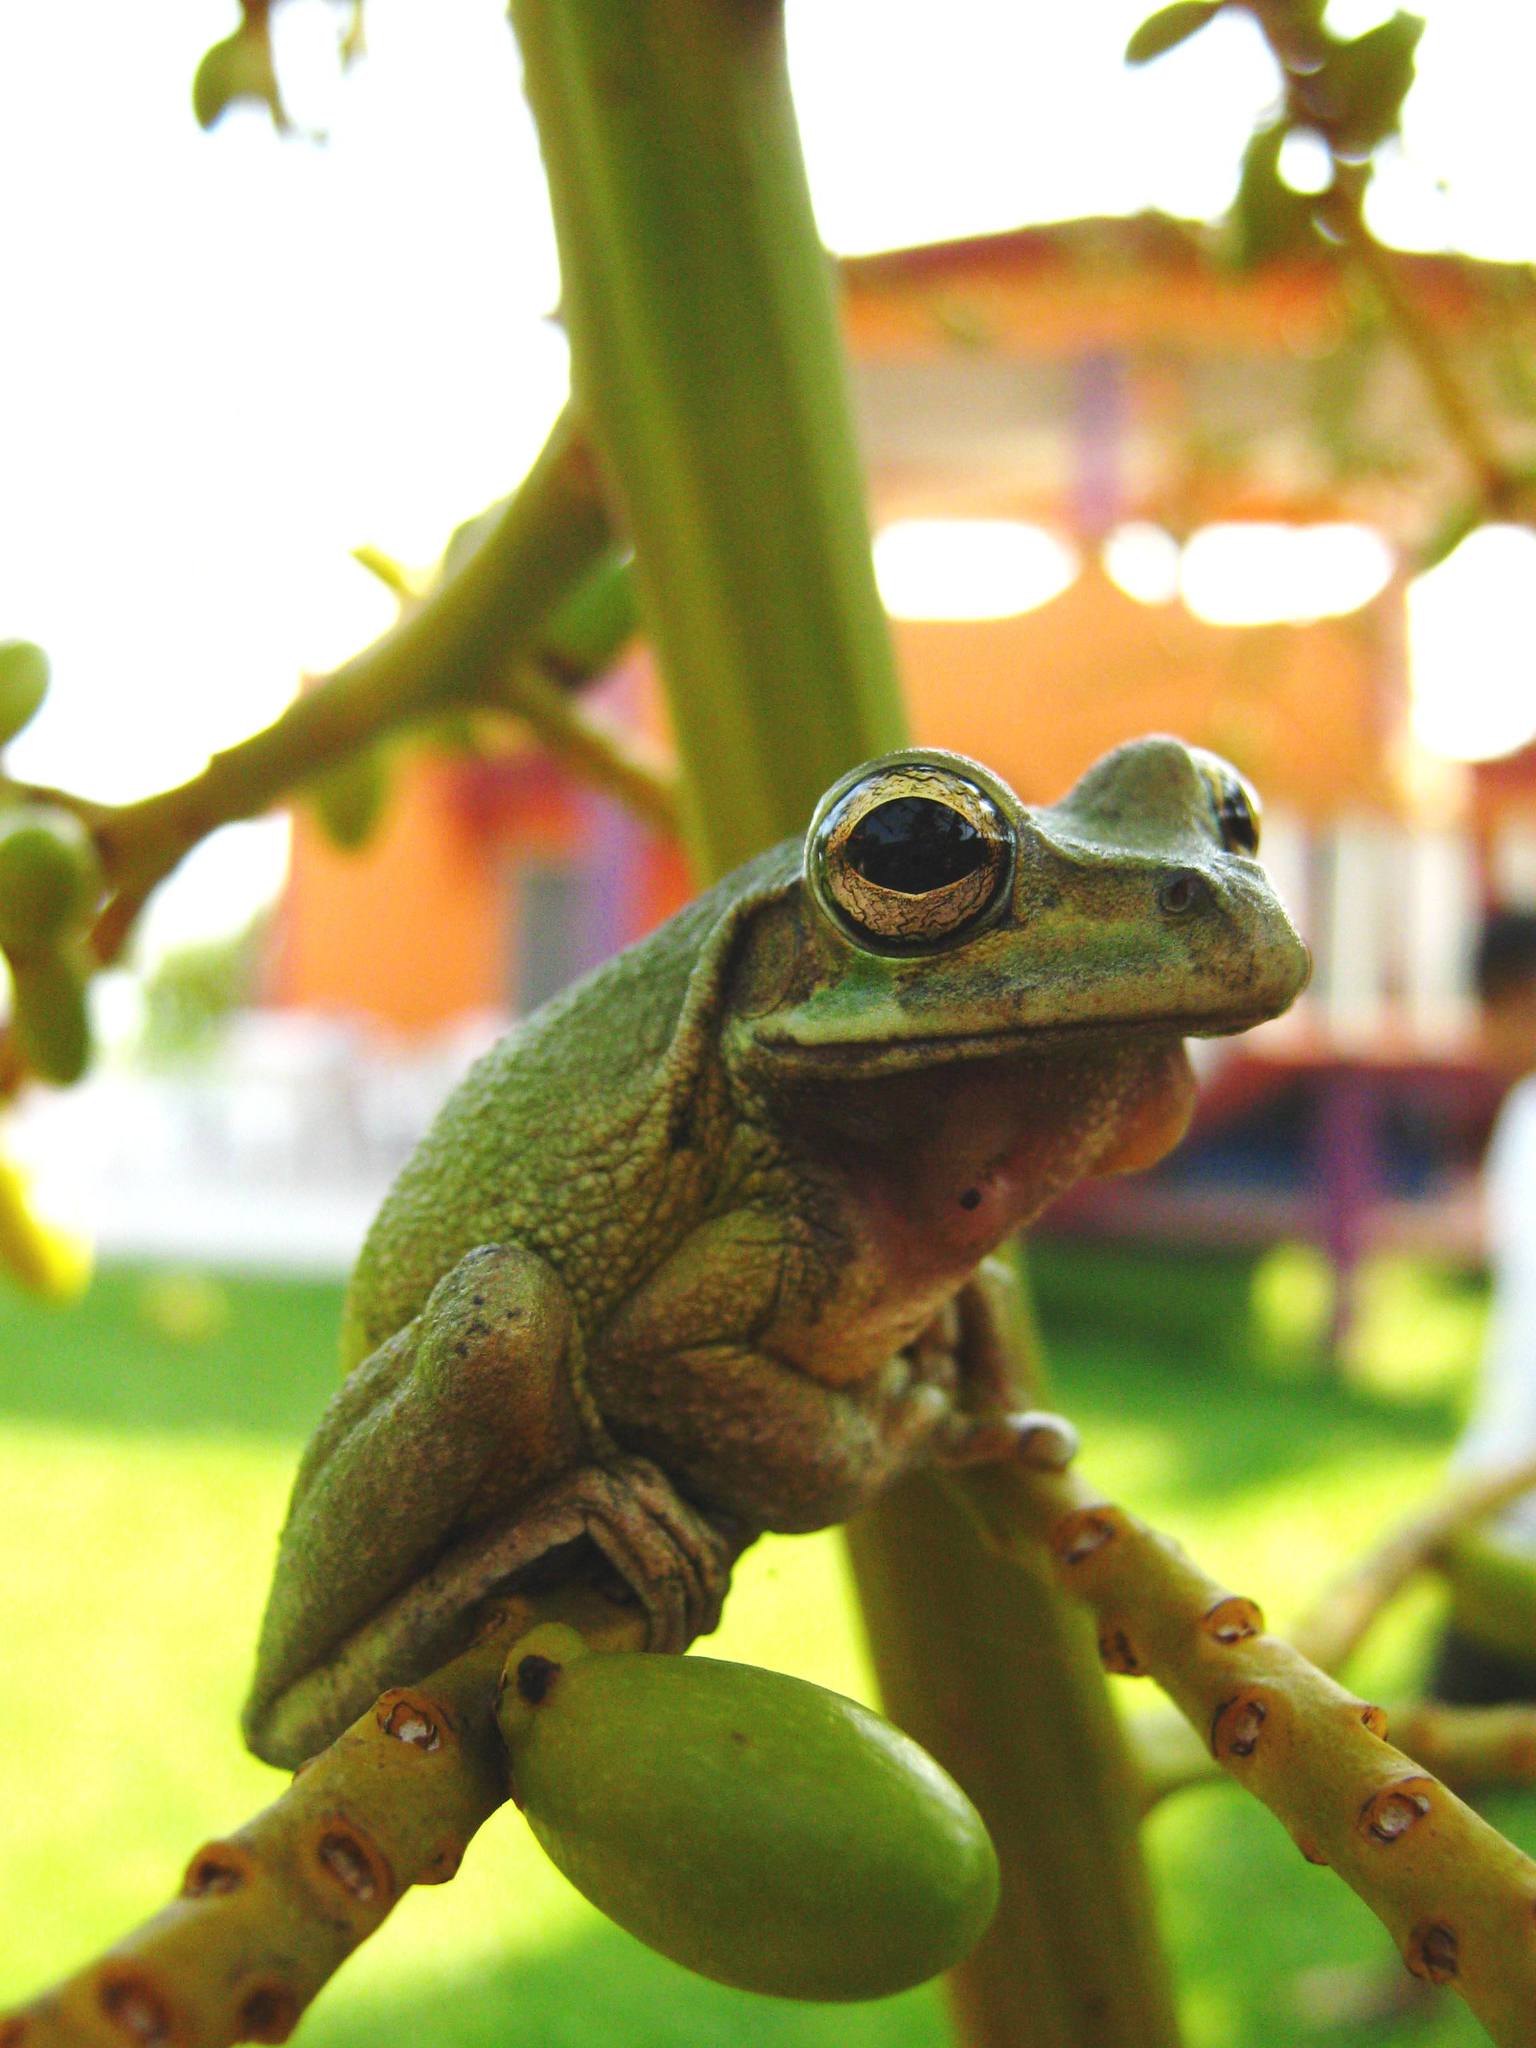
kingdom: Animalia
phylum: Chordata
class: Amphibia
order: Anura
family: Hylidae
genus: Smilisca
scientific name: Smilisca baudinii
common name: Mexican smilisca
